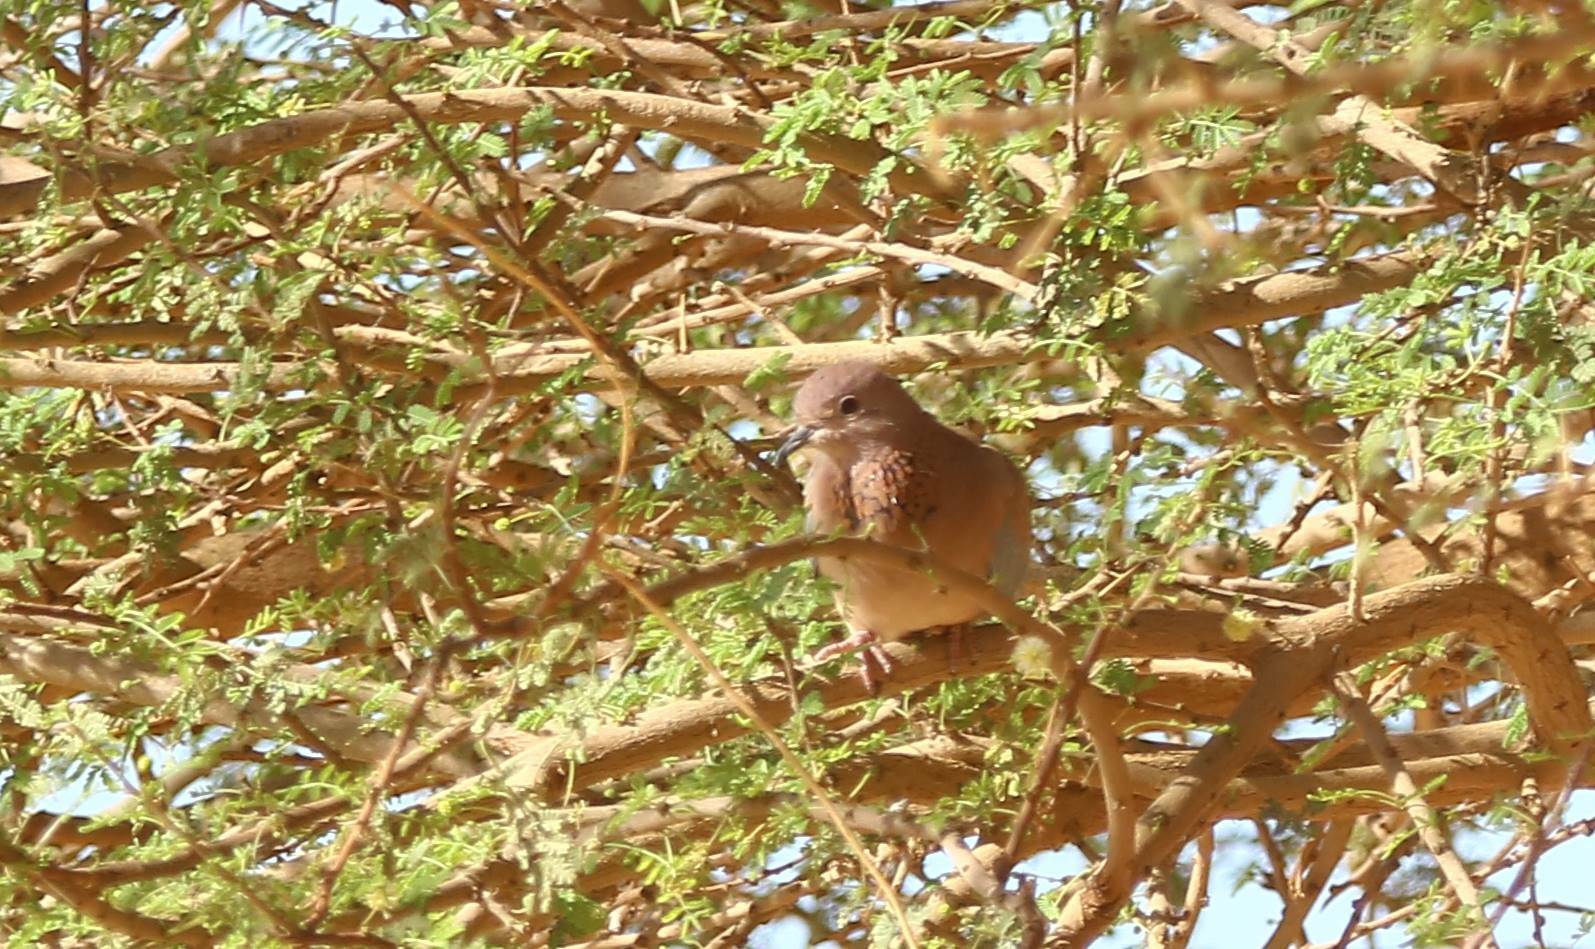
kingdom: Animalia
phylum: Chordata
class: Aves
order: Columbiformes
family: Columbidae
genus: Spilopelia
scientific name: Spilopelia senegalensis
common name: Laughing dove
